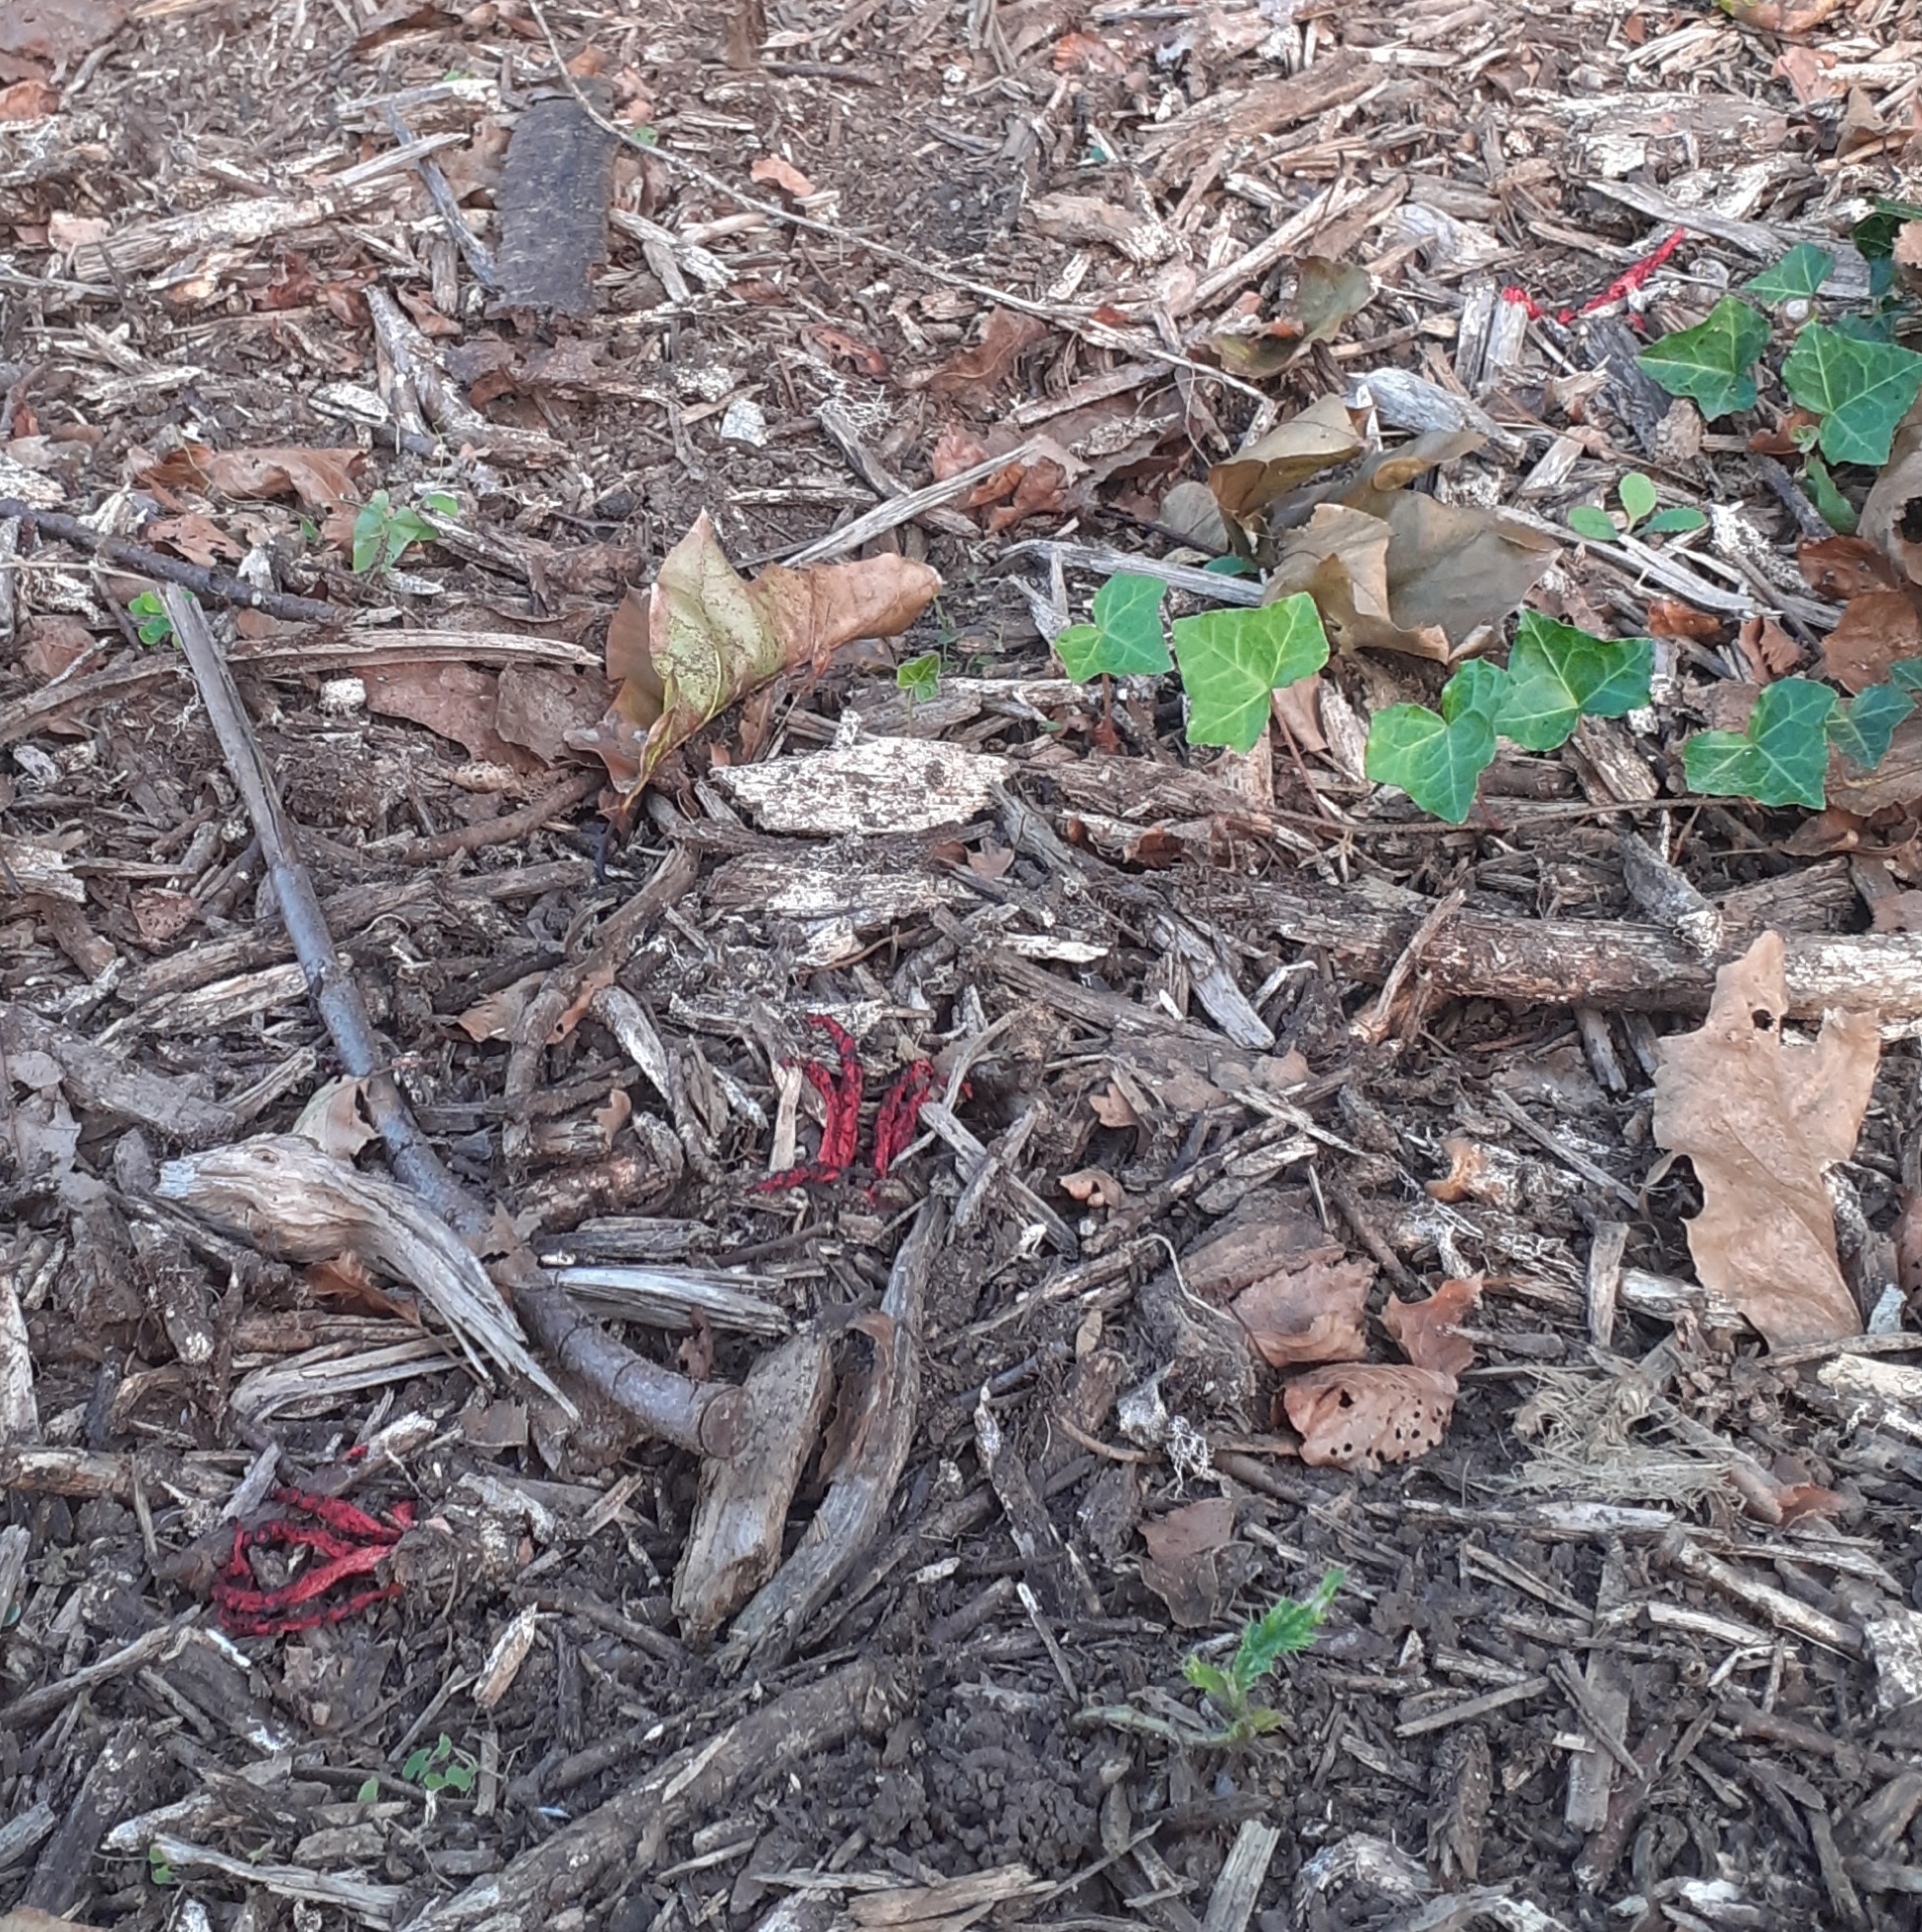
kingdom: Fungi
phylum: Basidiomycota
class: Agaricomycetes
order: Phallales
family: Phallaceae
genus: Clathrus
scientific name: Clathrus archeri
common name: Devil's fingers
